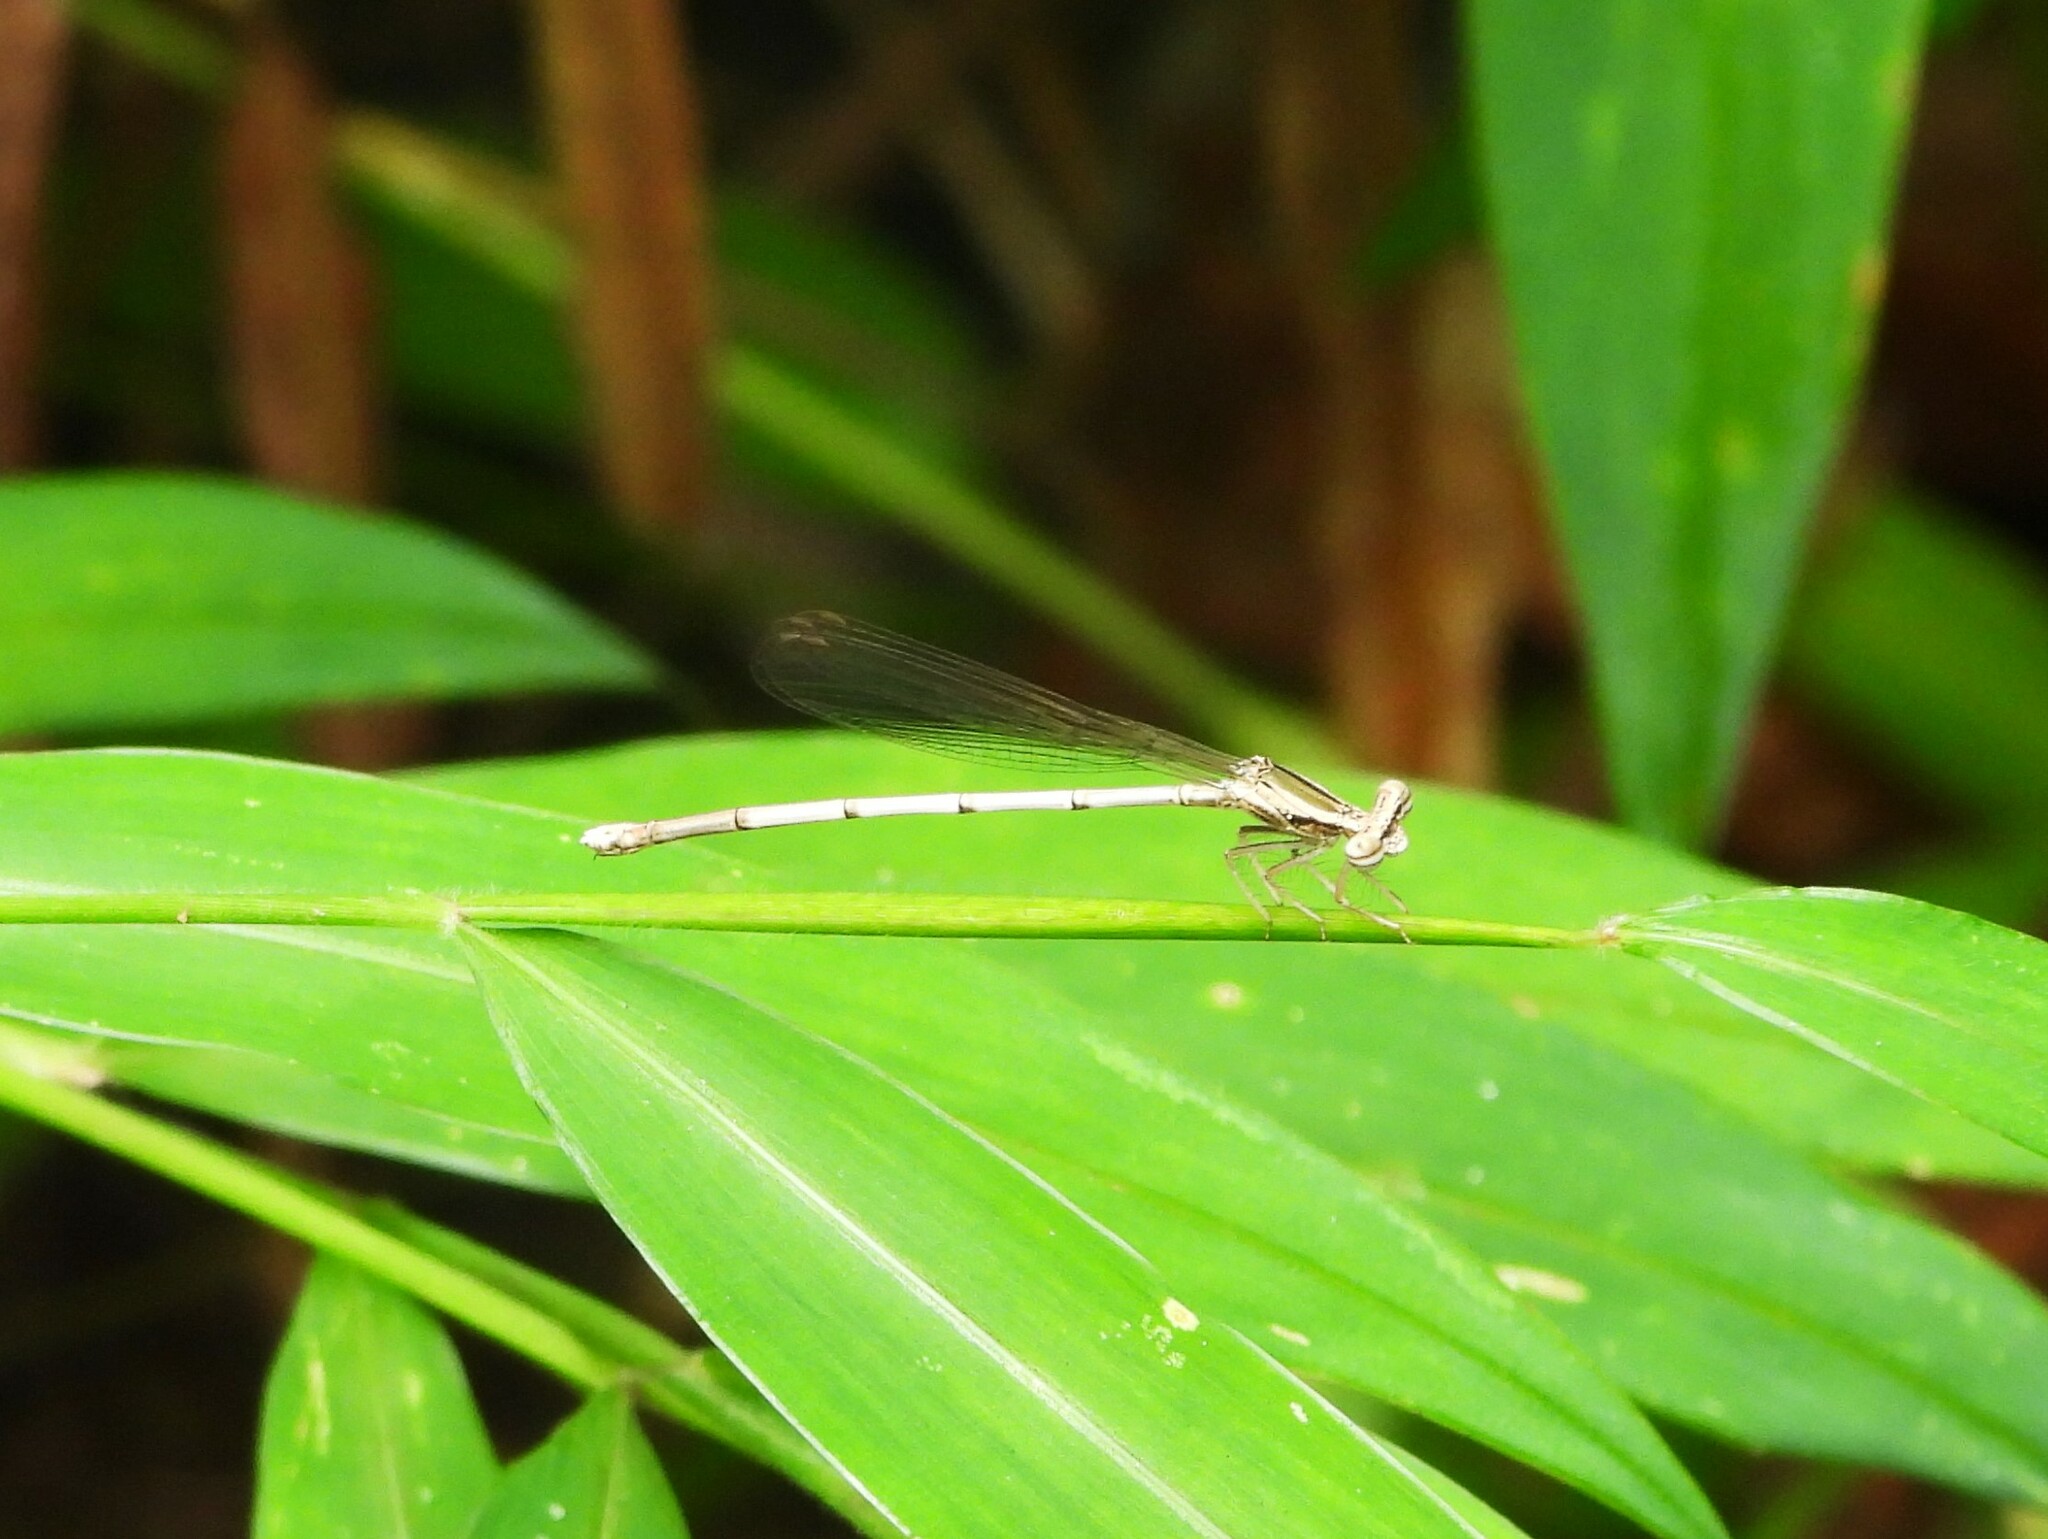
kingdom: Animalia
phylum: Arthropoda
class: Insecta
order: Odonata
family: Platycnemididae
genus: Copera
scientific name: Copera marginipes
